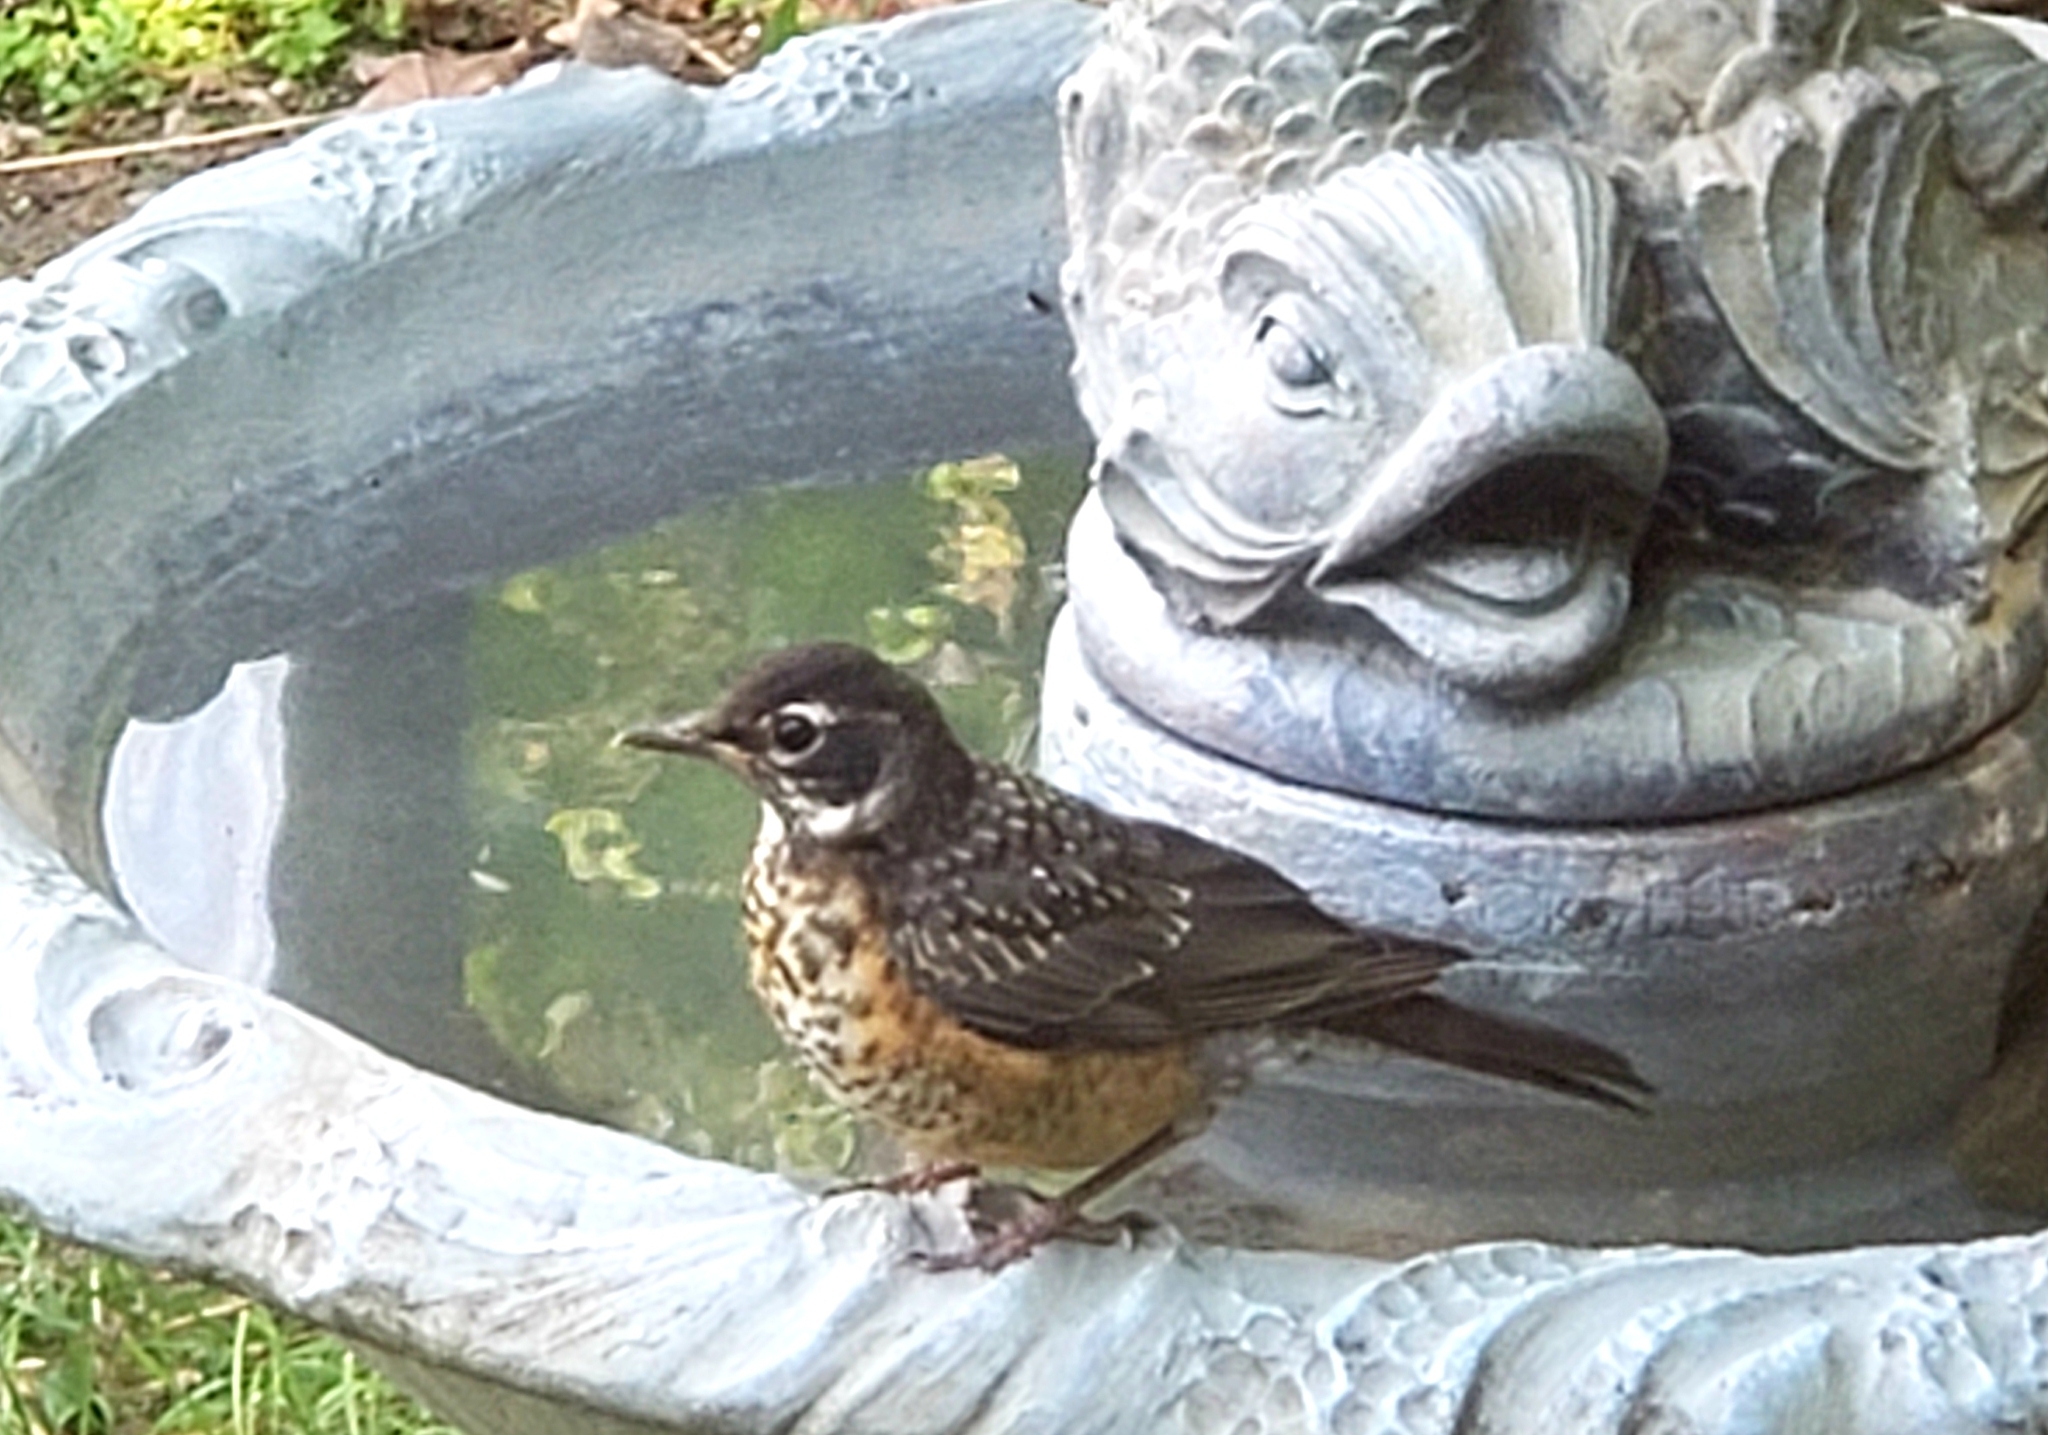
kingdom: Animalia
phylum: Chordata
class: Aves
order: Passeriformes
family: Turdidae
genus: Turdus
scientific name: Turdus migratorius
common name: American robin
